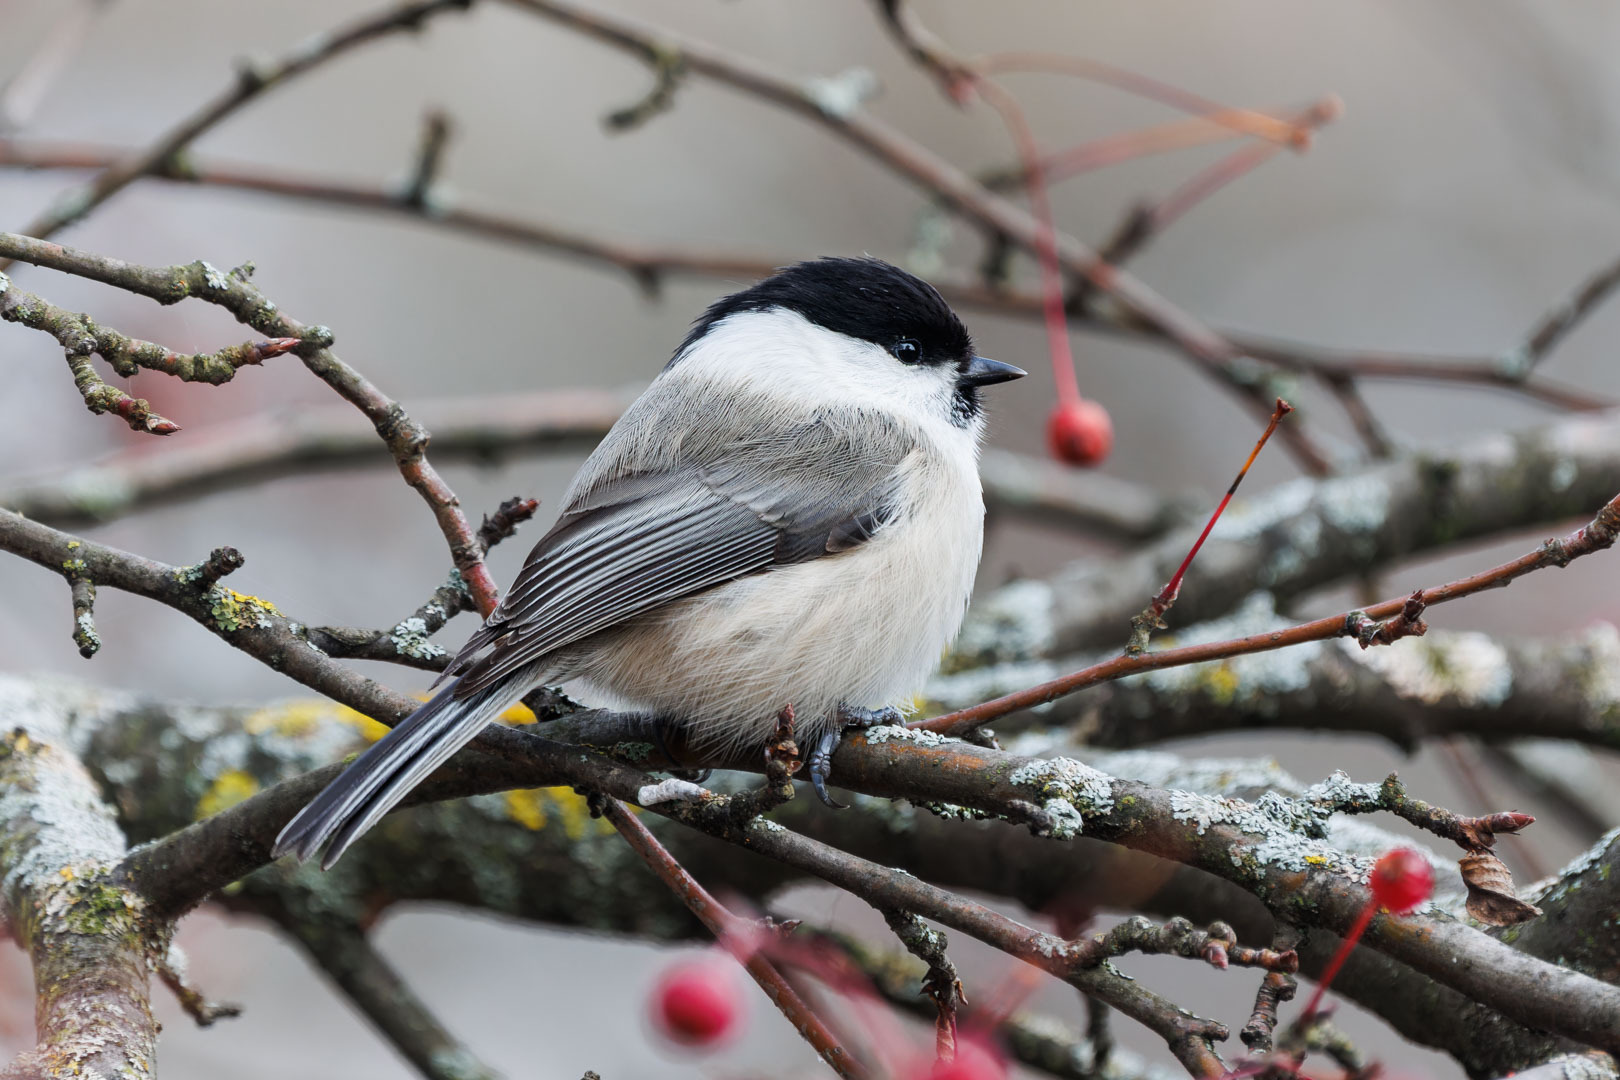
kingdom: Animalia
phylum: Chordata
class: Aves
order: Passeriformes
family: Paridae
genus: Poecile
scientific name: Poecile montanus
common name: Willow tit
